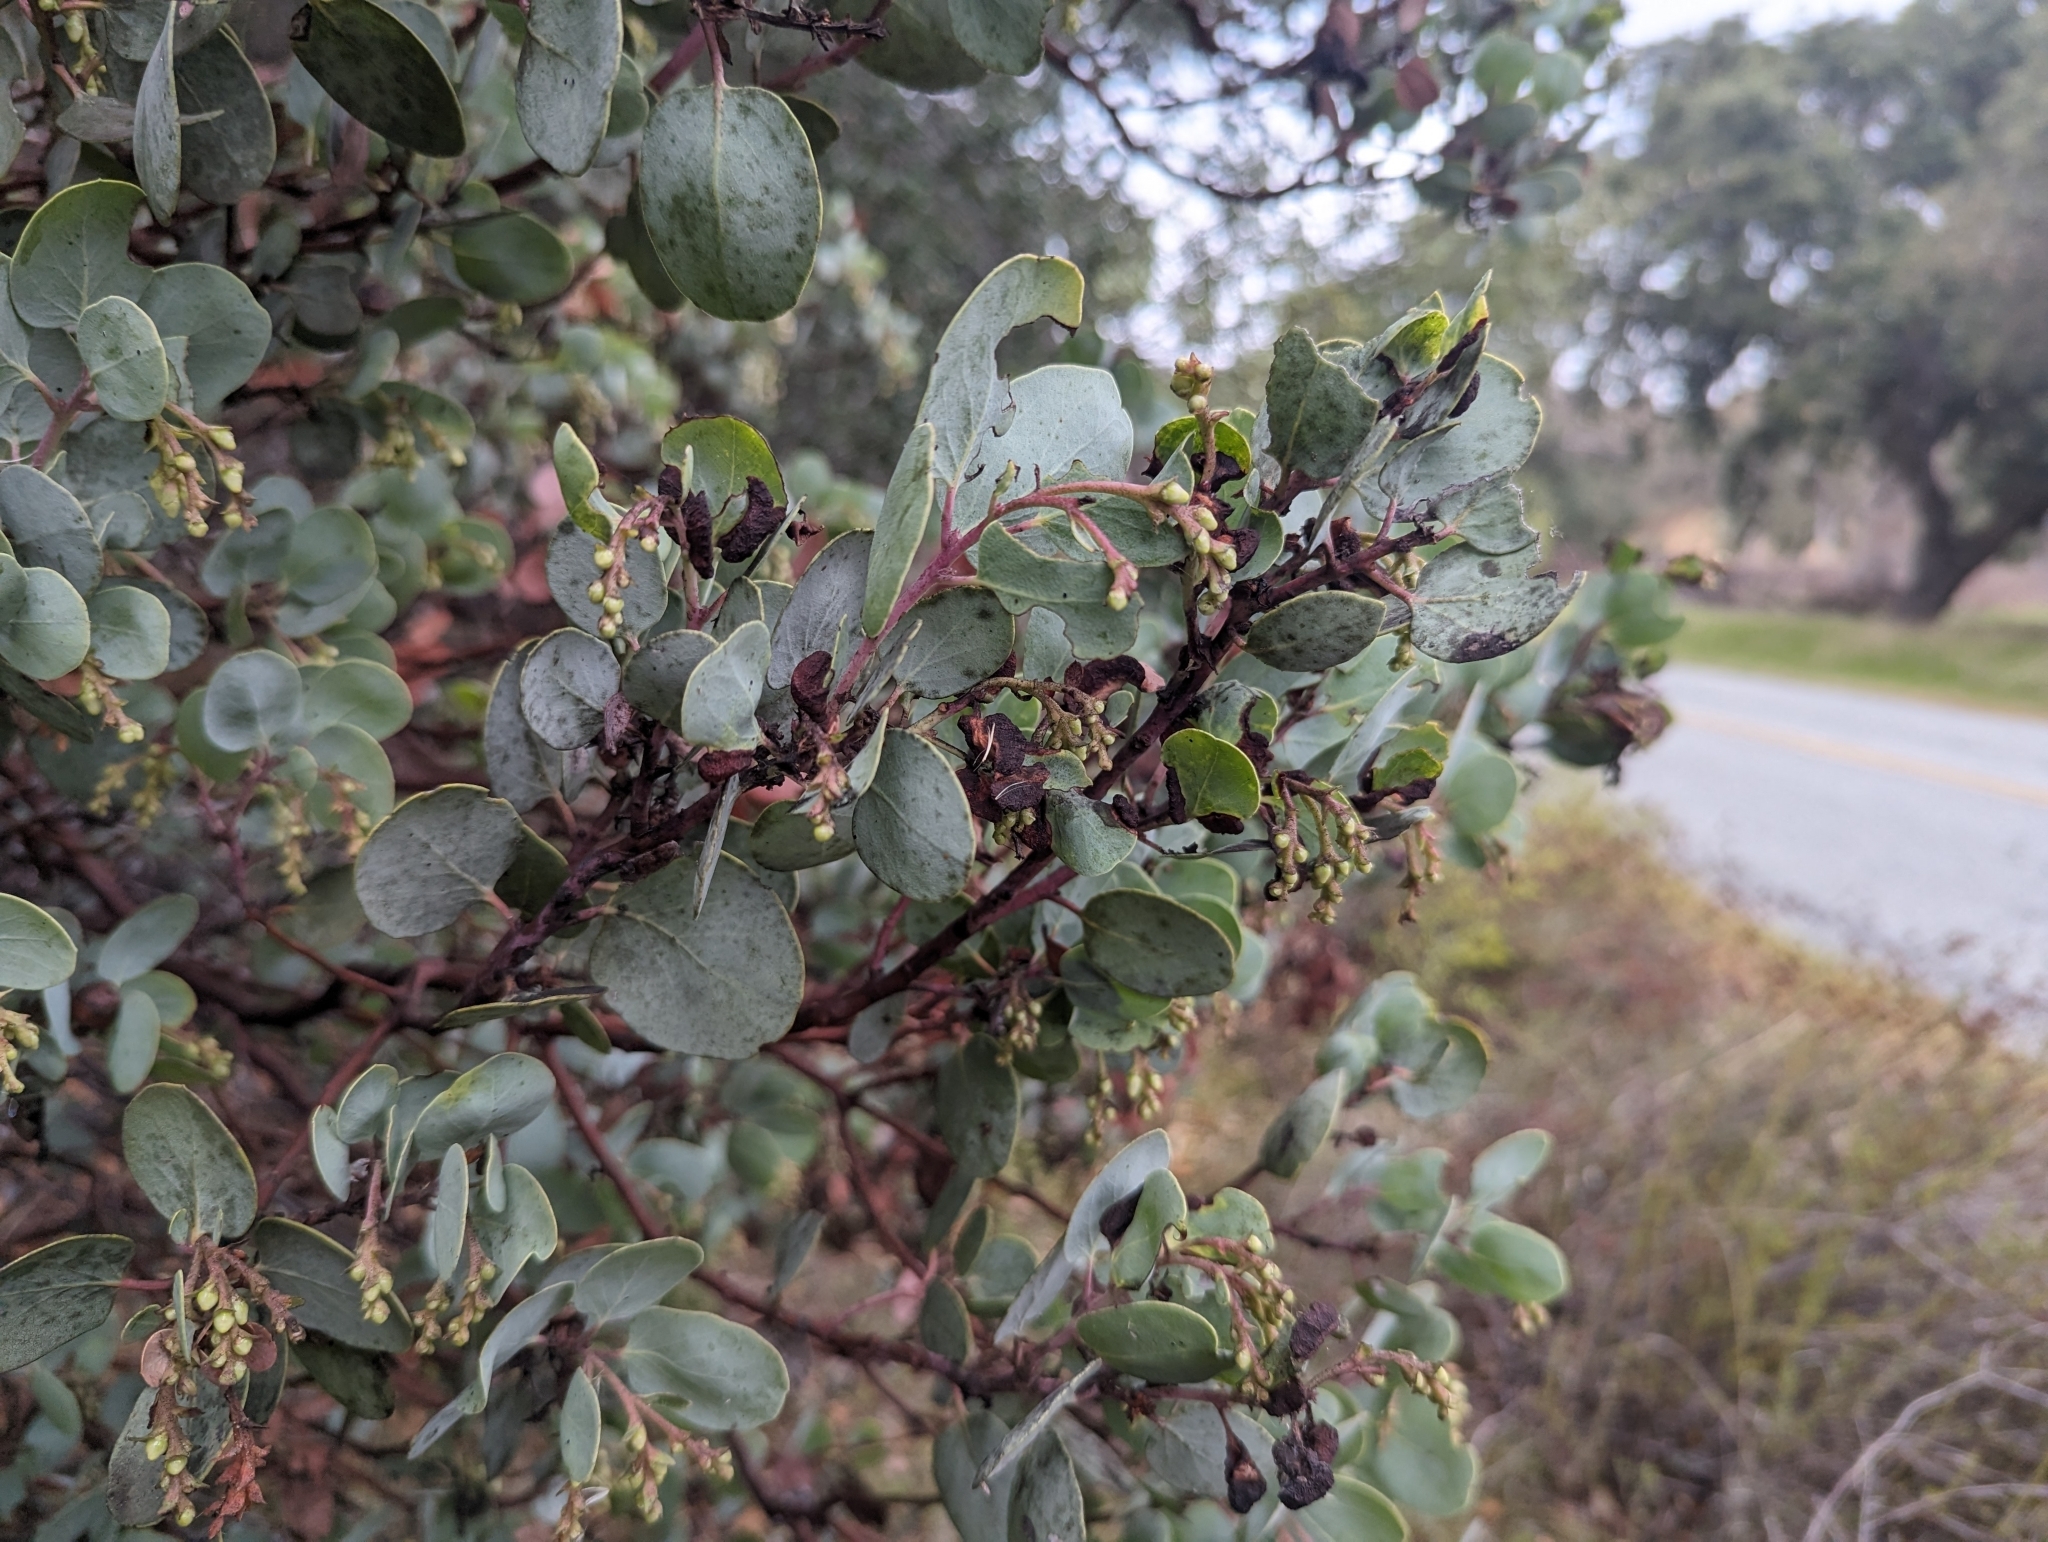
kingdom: Animalia
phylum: Arthropoda
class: Insecta
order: Hemiptera
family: Aphididae
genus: Tamalia
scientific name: Tamalia
